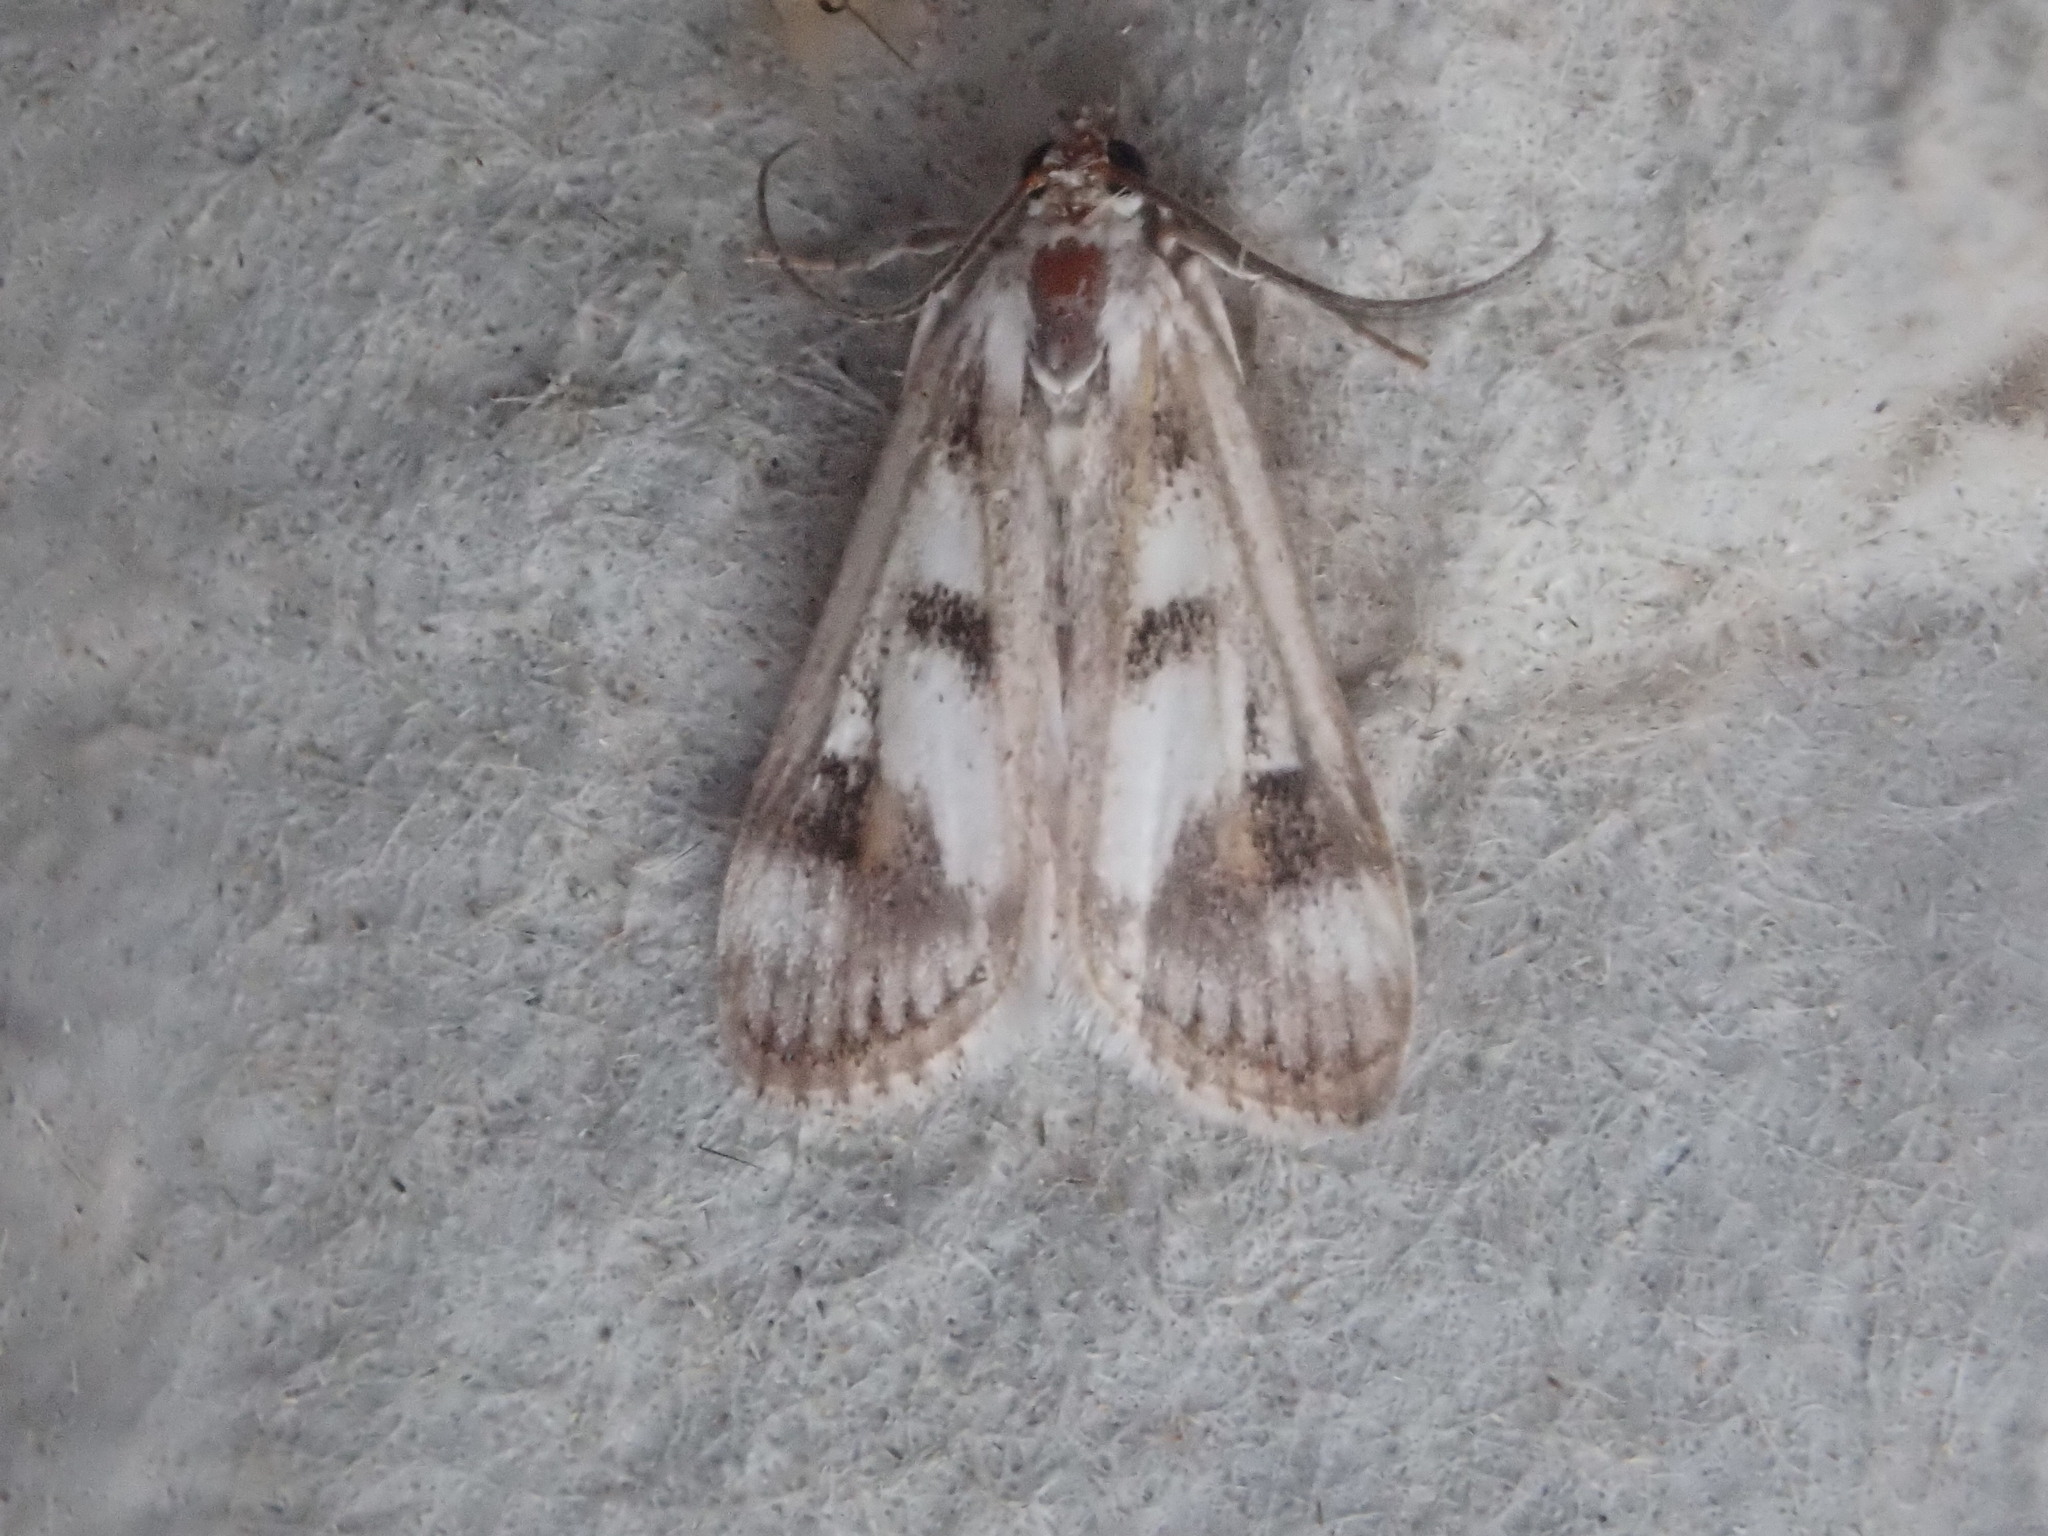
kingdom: Animalia
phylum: Arthropoda
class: Insecta
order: Lepidoptera
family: Crambidae
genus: Parapoynx
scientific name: Parapoynx maculalis
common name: Polymorphic pondweed moth
